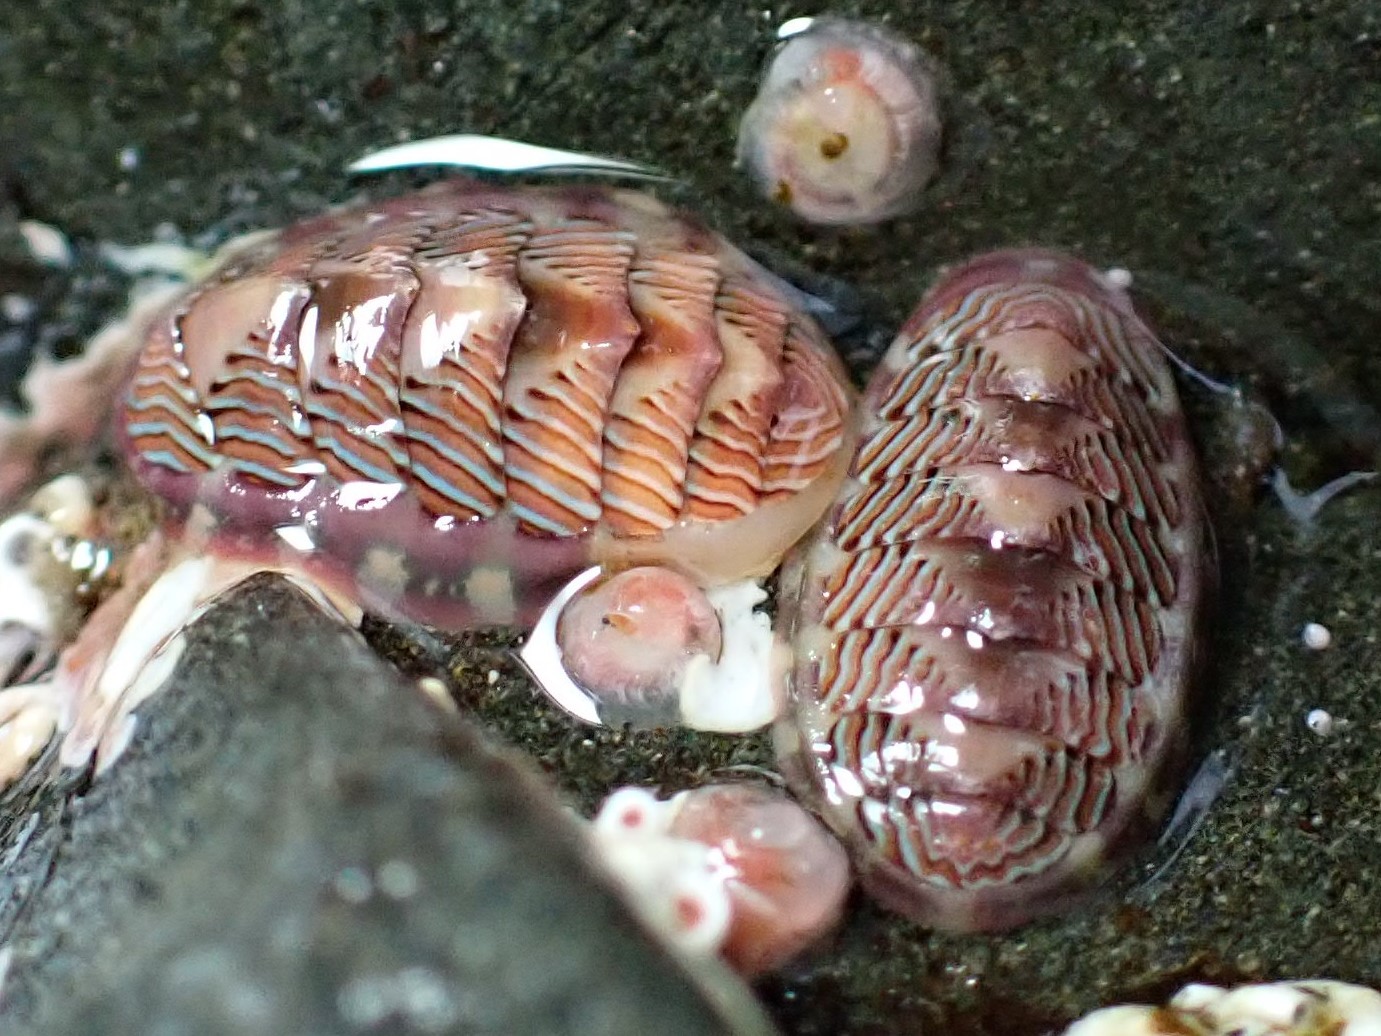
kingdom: Animalia
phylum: Mollusca
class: Polyplacophora
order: Chitonida
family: Tonicellidae
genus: Tonicella
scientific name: Tonicella lineata
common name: Lined chiton
